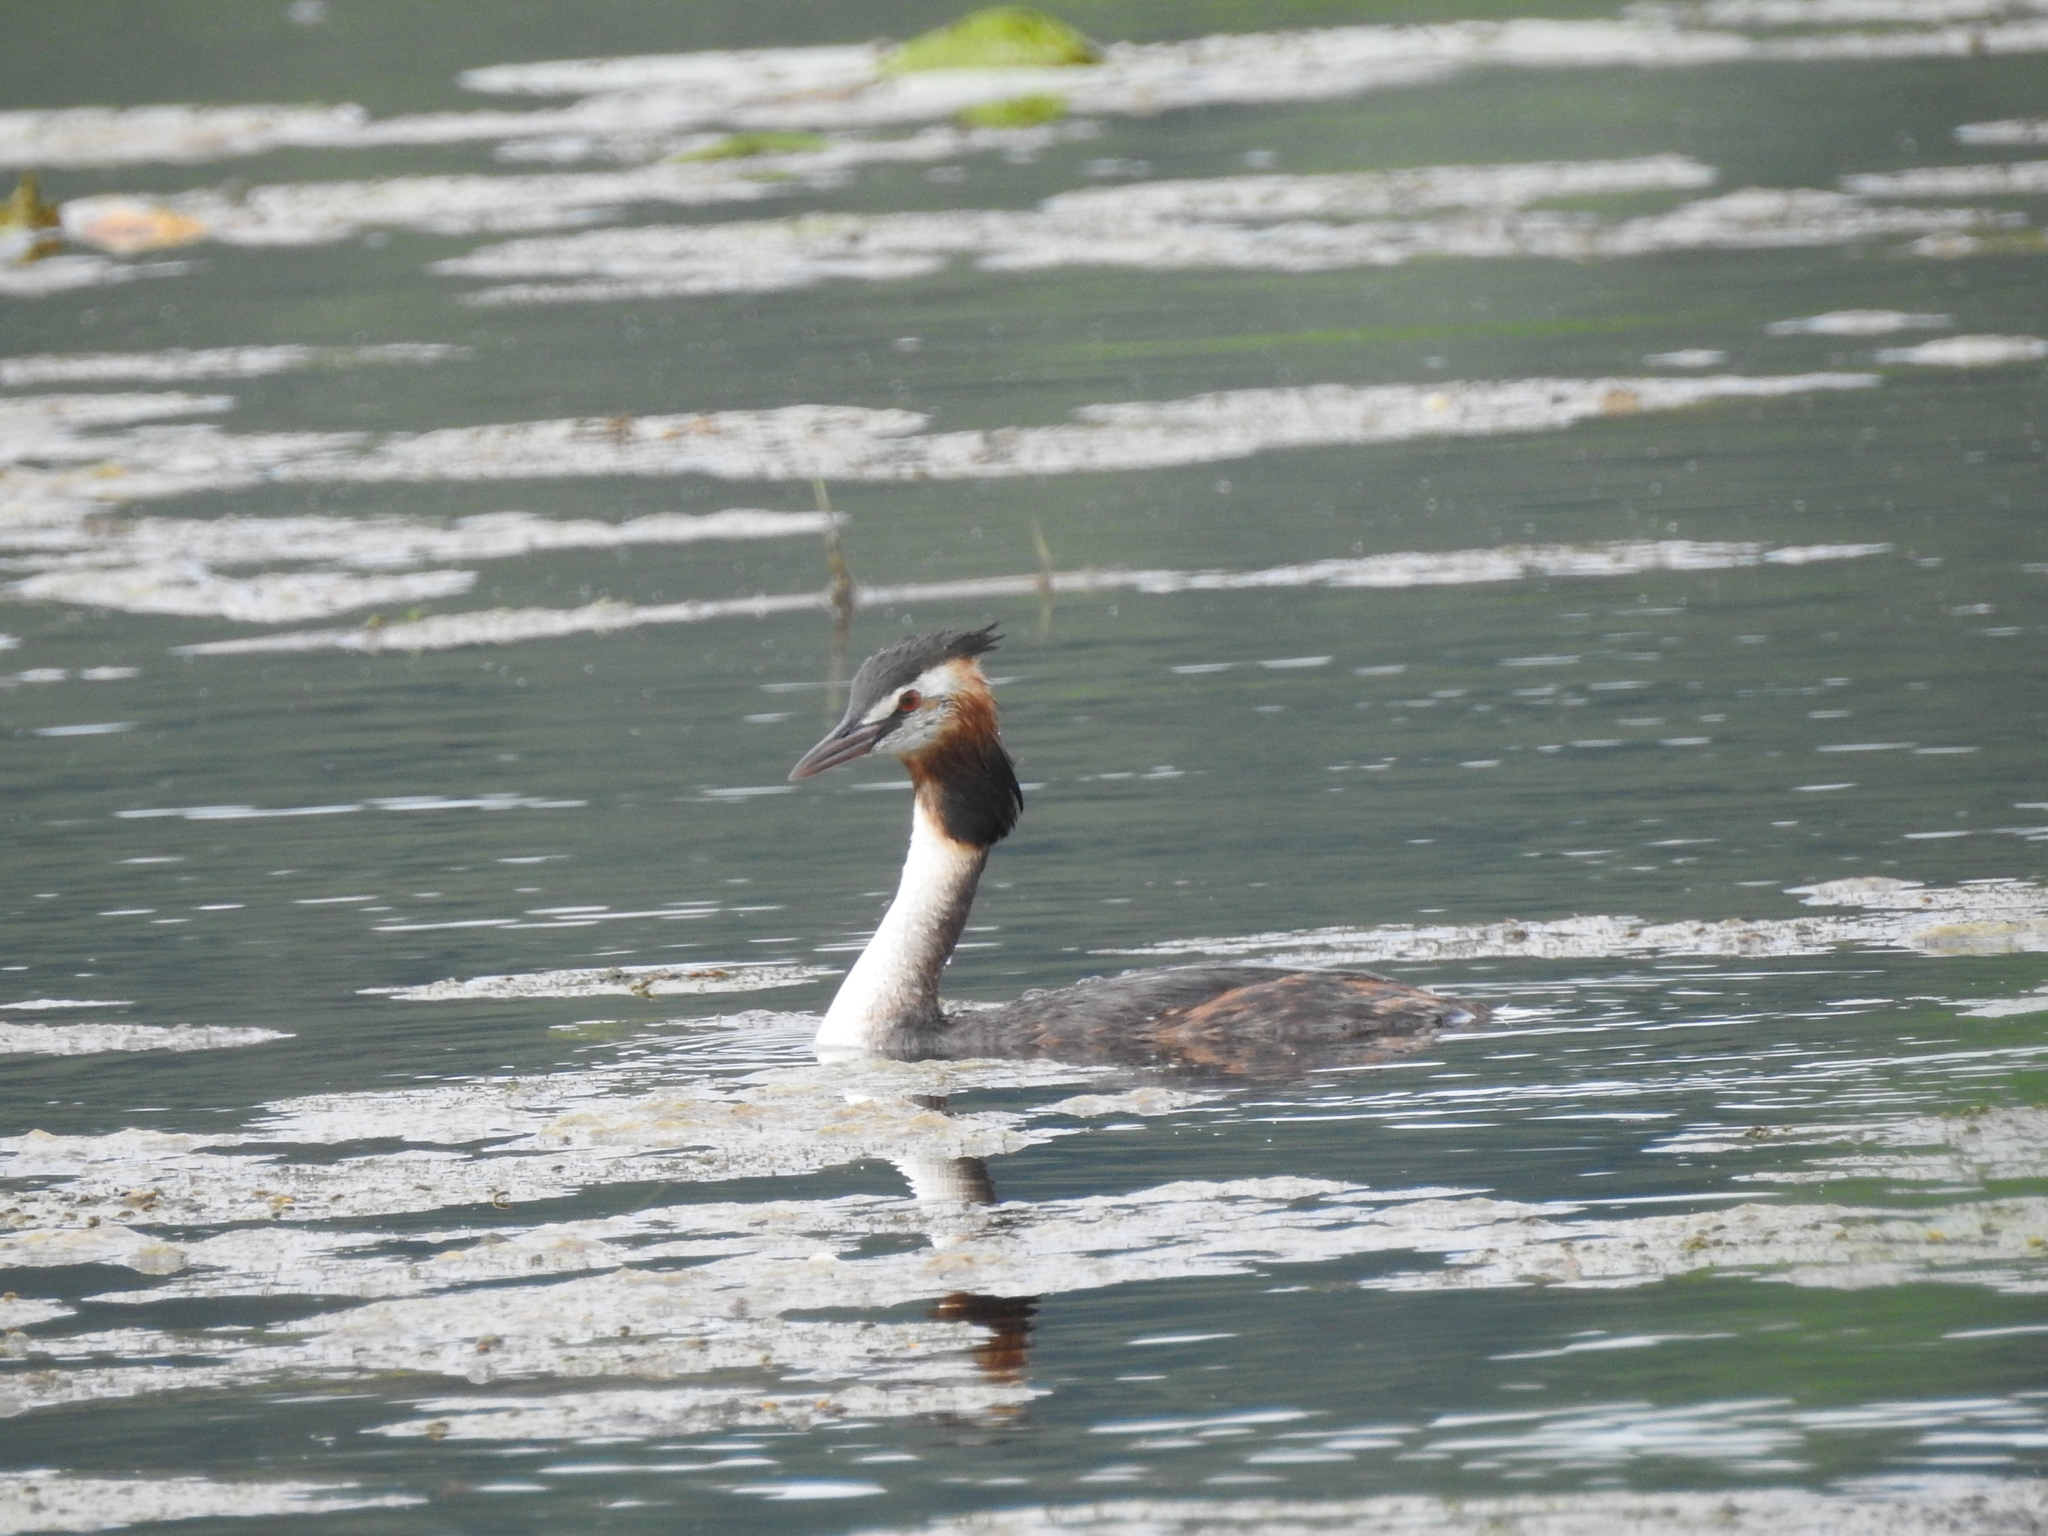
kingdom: Animalia
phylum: Chordata
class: Aves
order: Podicipediformes
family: Podicipedidae
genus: Podiceps
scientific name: Podiceps cristatus
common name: Great crested grebe
